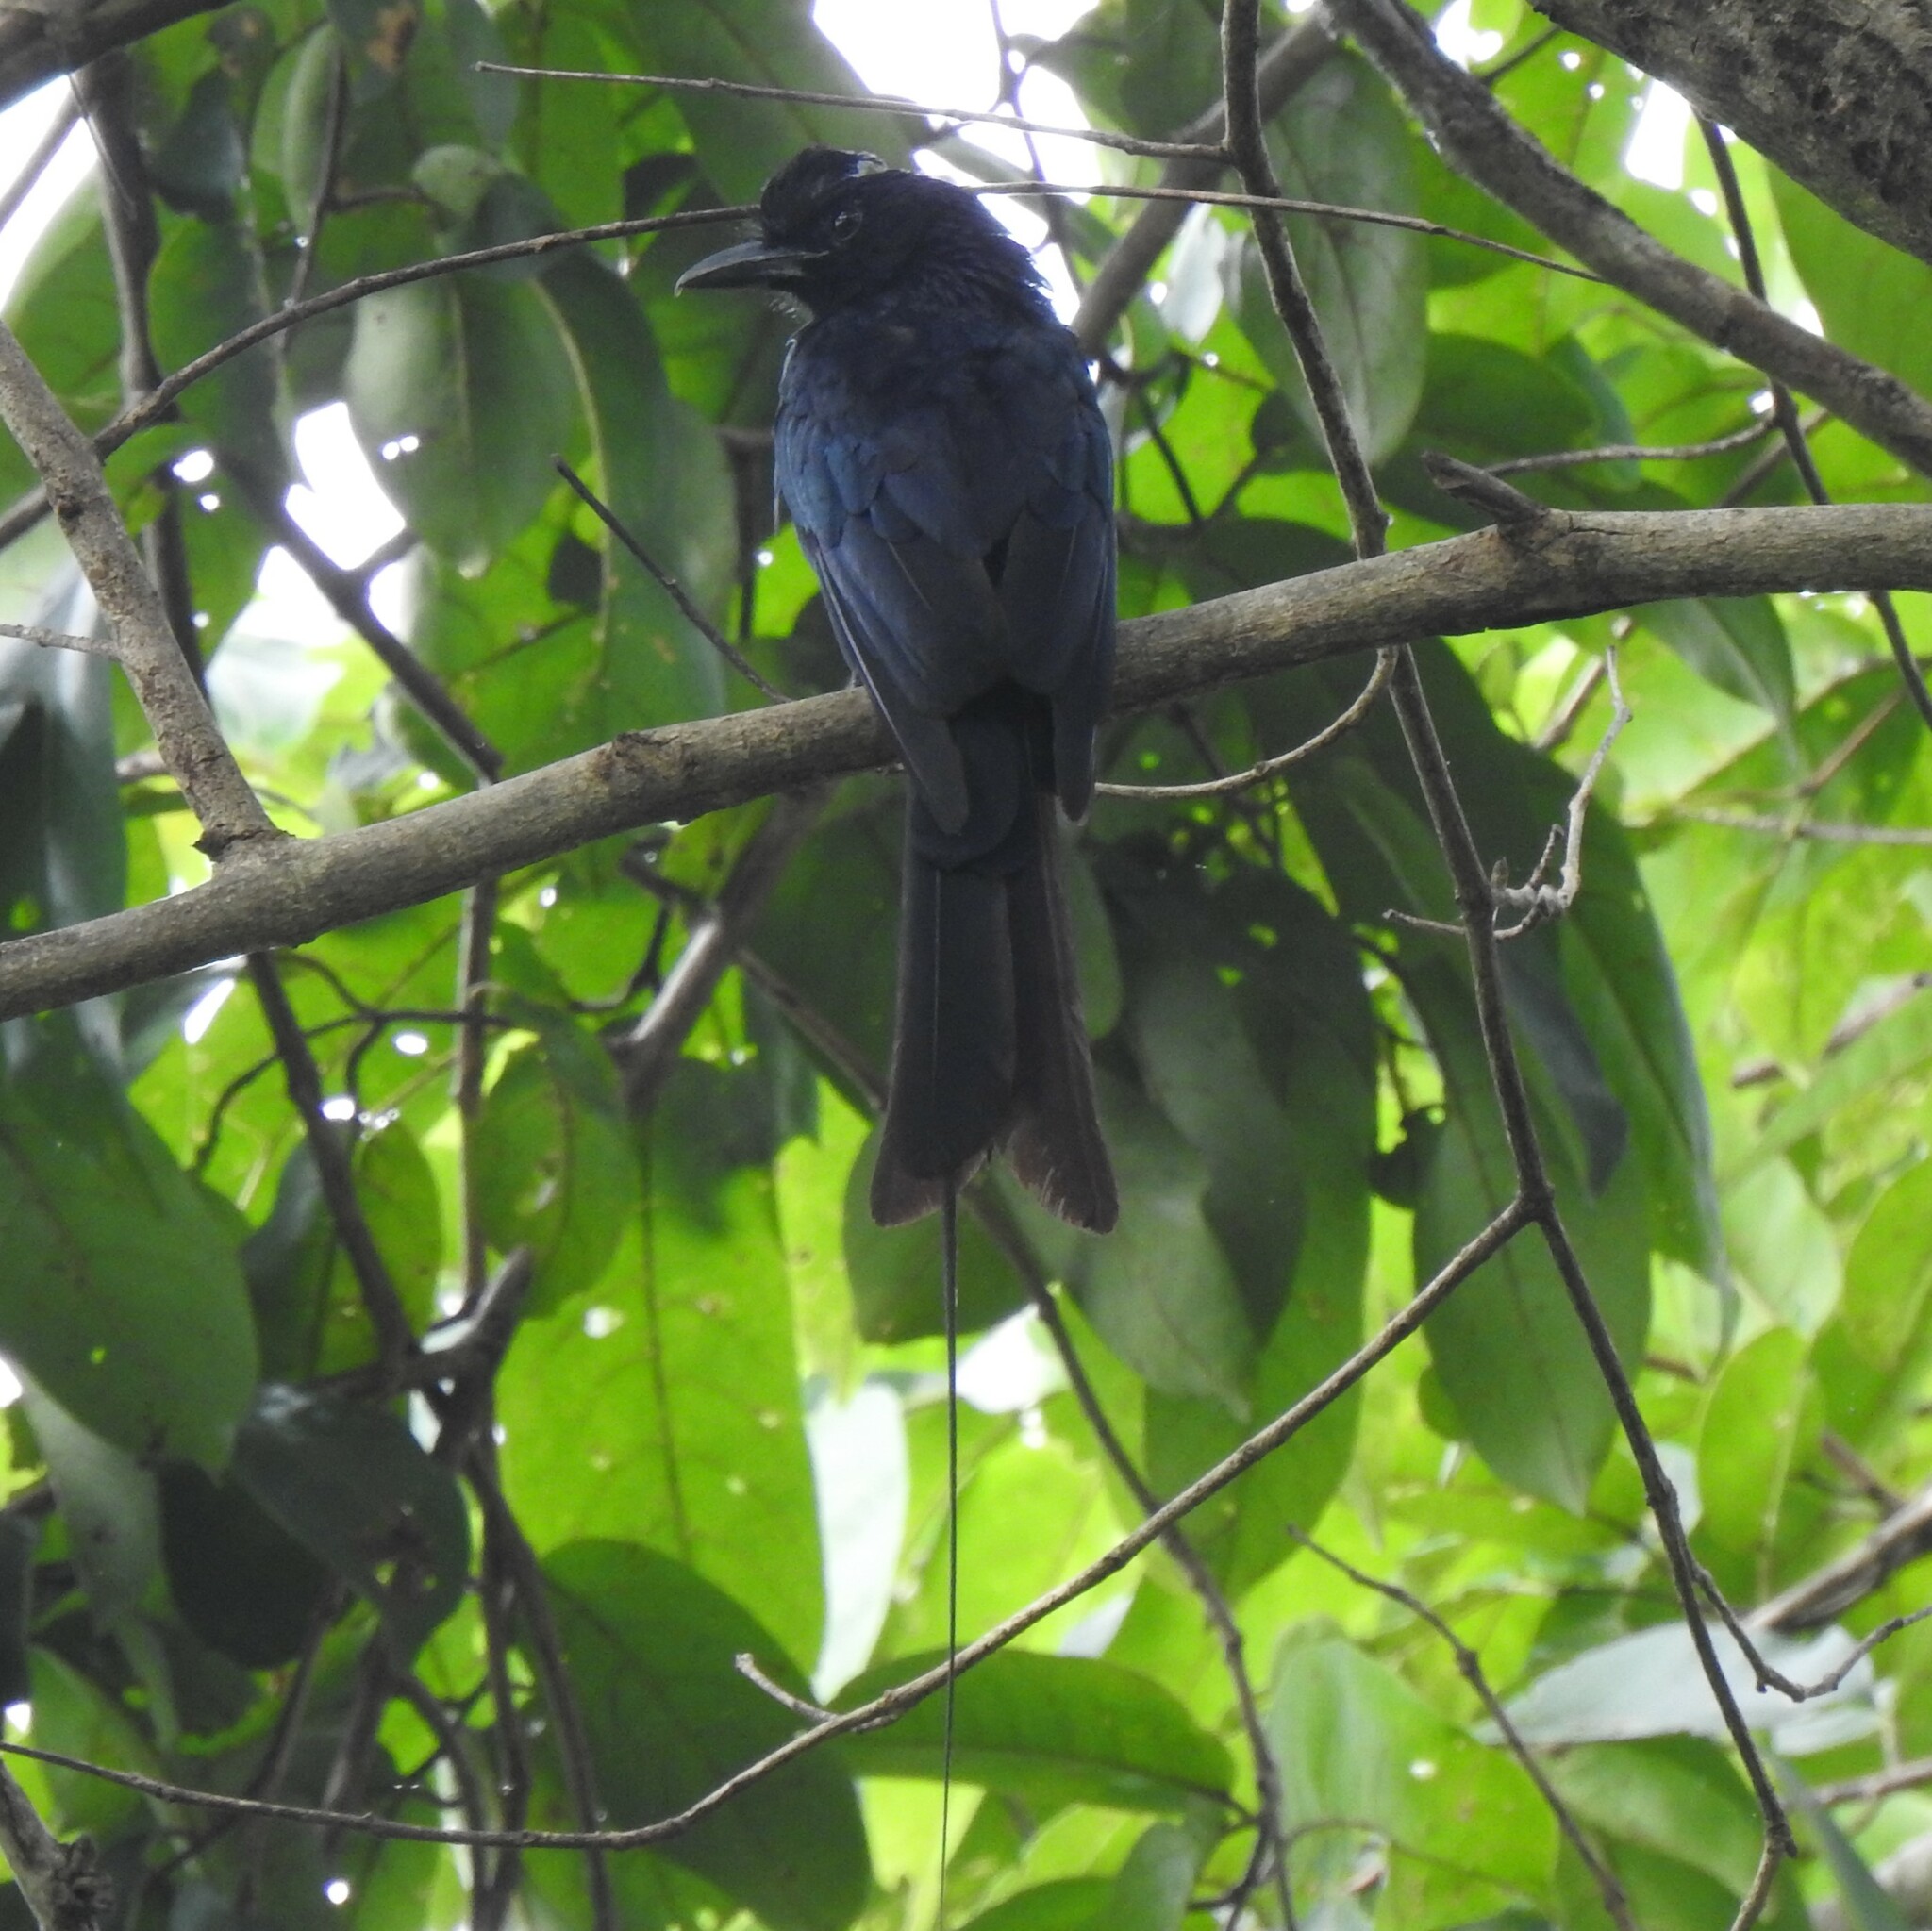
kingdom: Animalia
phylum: Chordata
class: Aves
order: Passeriformes
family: Dicruridae
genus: Dicrurus
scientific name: Dicrurus paradiseus
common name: Greater racket-tailed drongo
